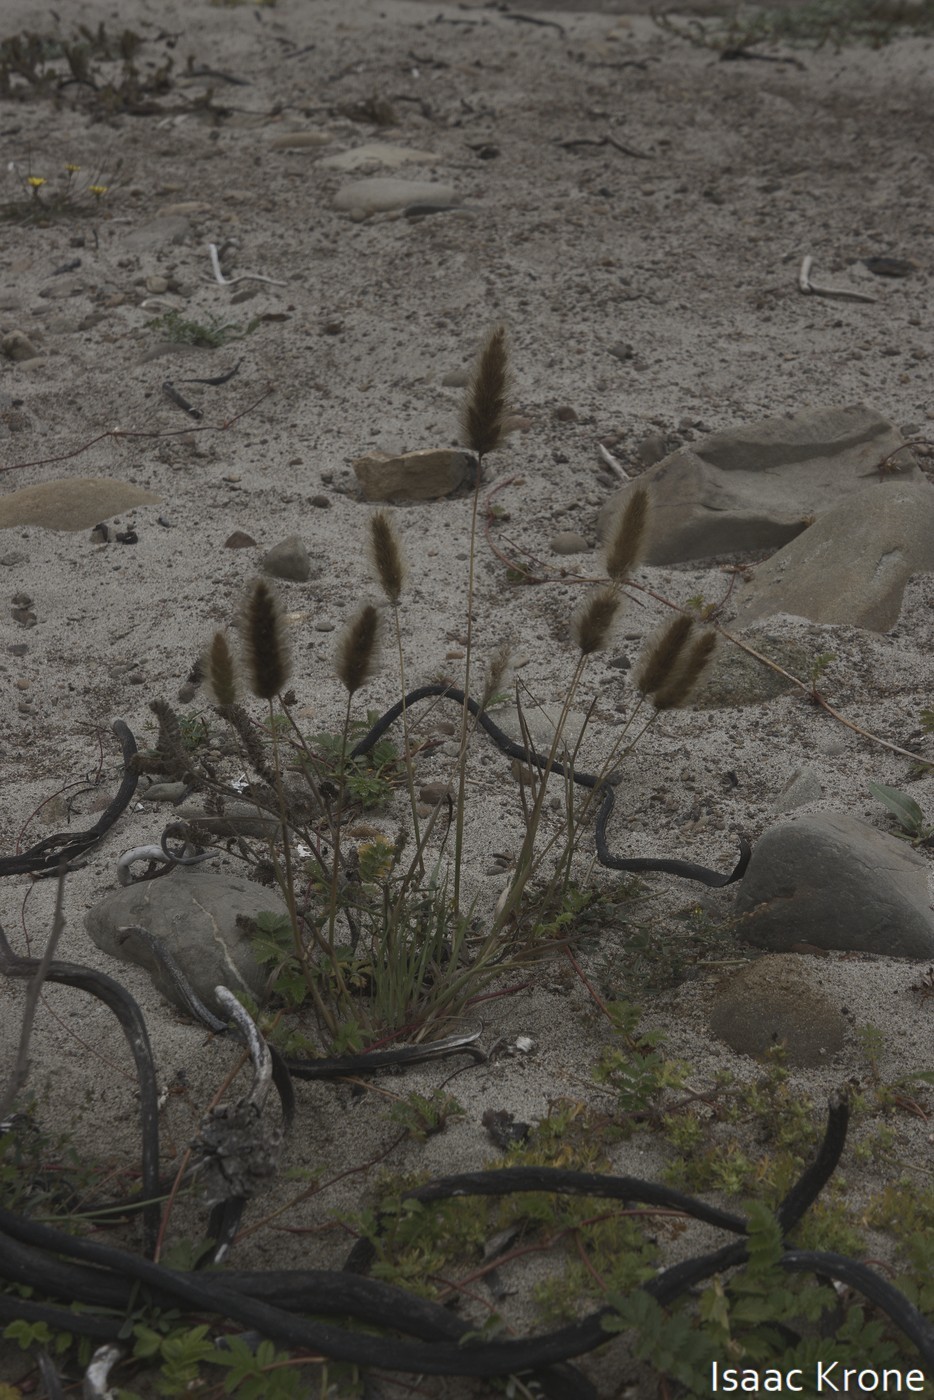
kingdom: Plantae
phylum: Tracheophyta
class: Liliopsida
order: Poales
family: Poaceae
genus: Lagurus
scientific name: Lagurus ovatus
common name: Hare's-tail
